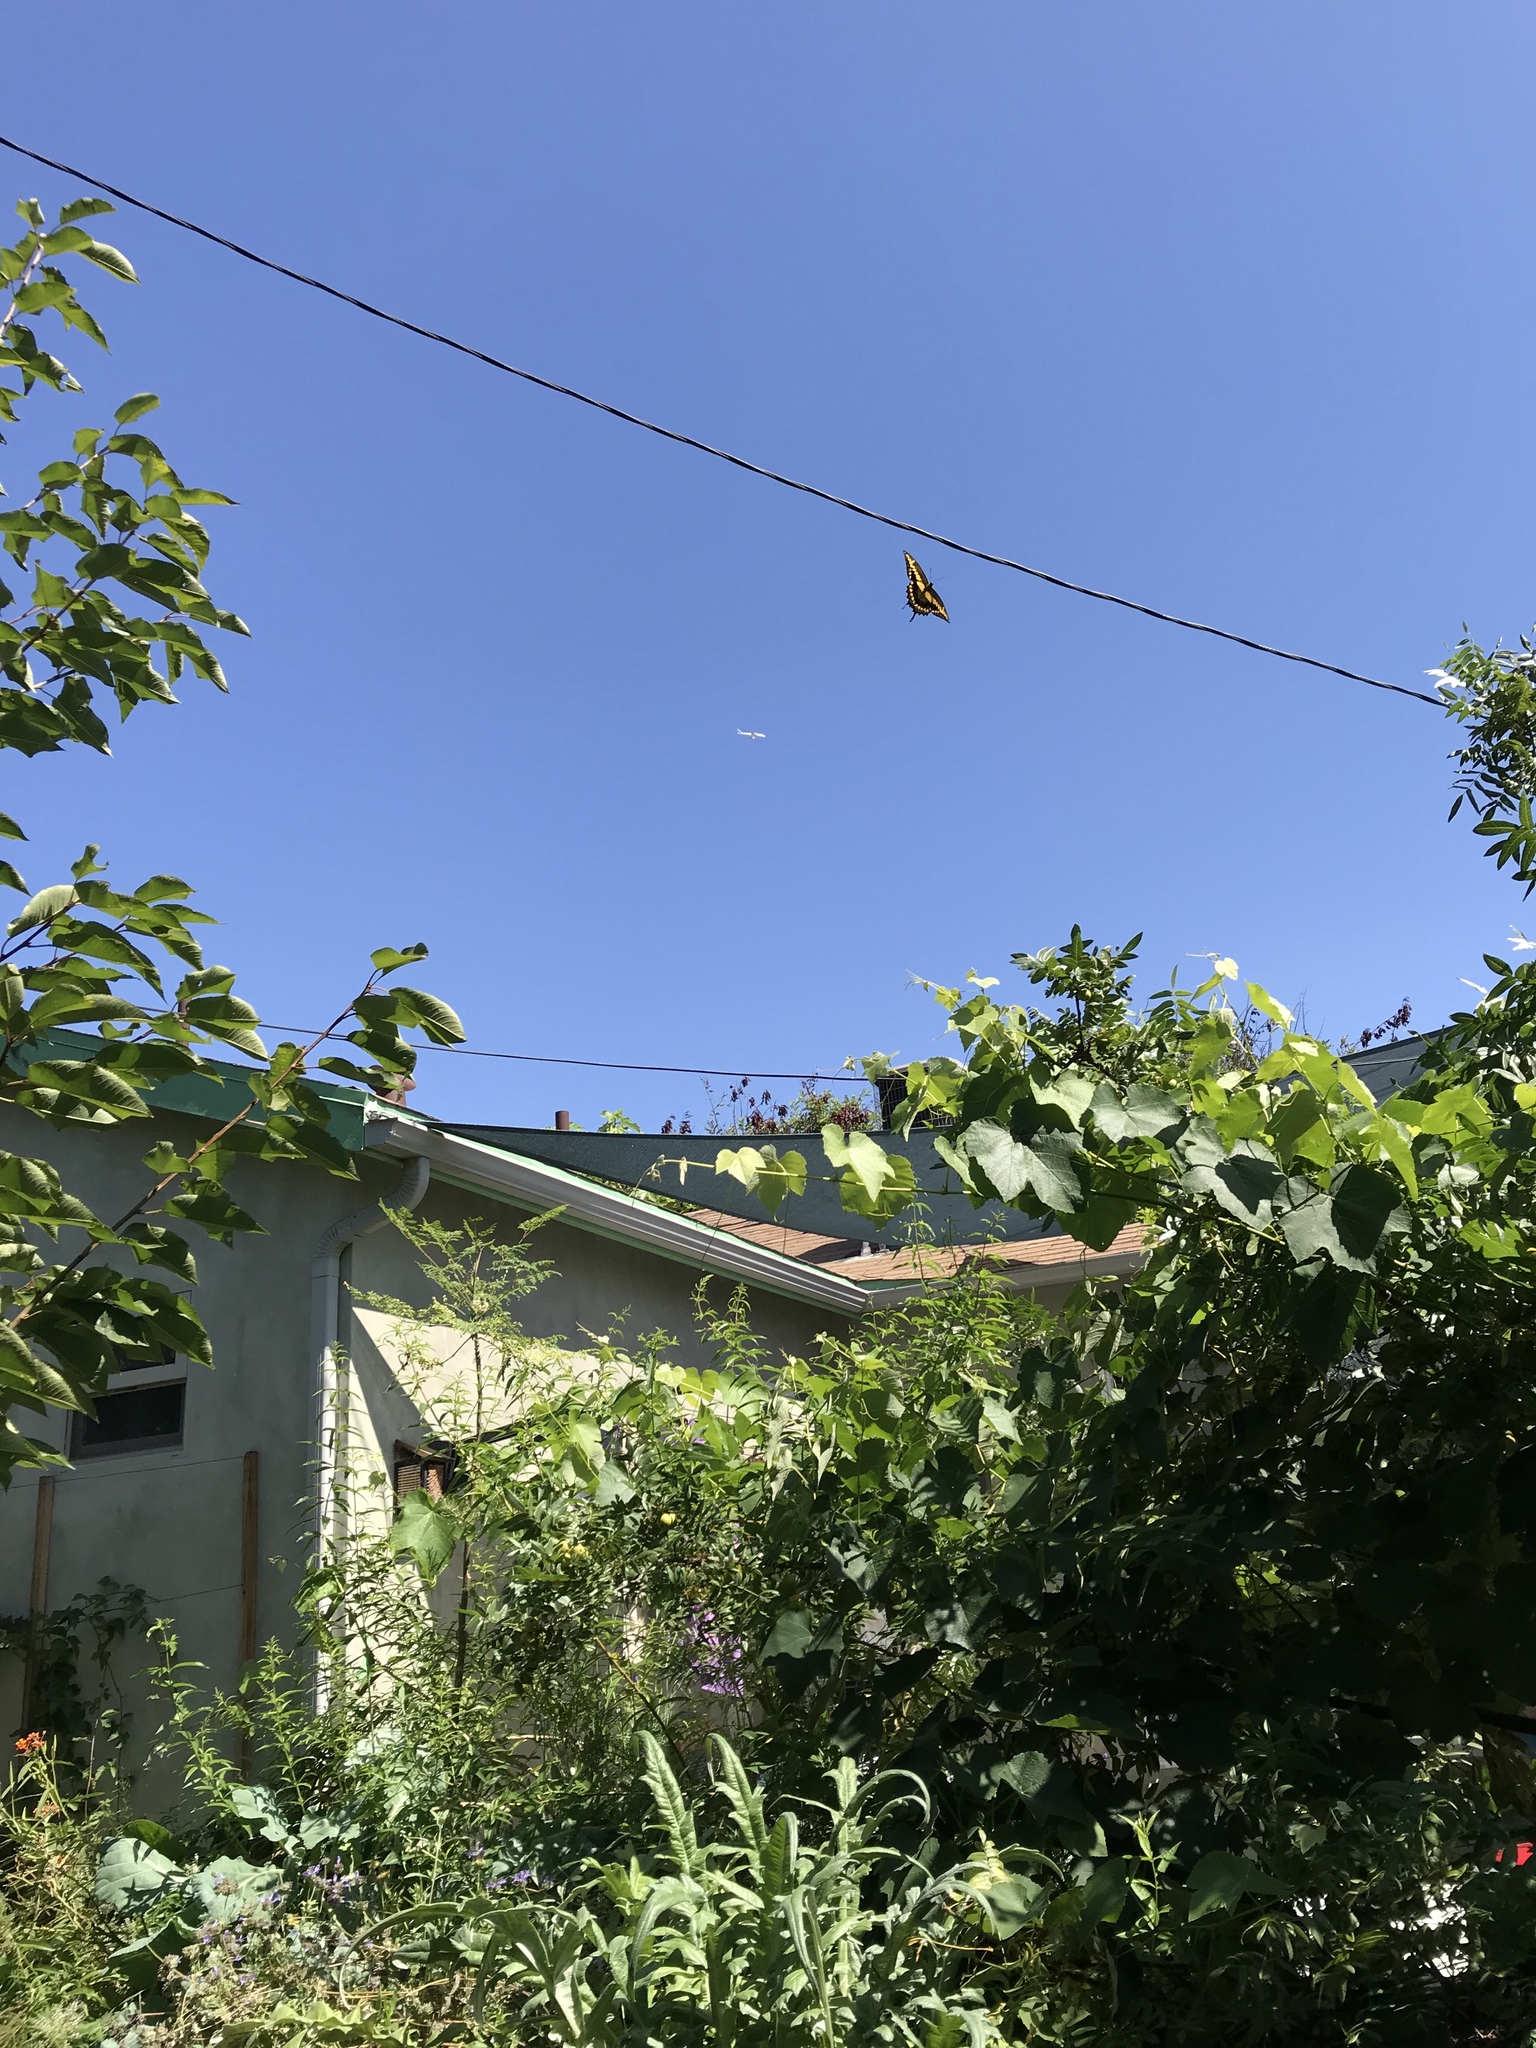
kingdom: Animalia
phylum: Arthropoda
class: Insecta
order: Lepidoptera
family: Papilionidae
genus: Papilio
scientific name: Papilio rumiko
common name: Western giant swallowtail
